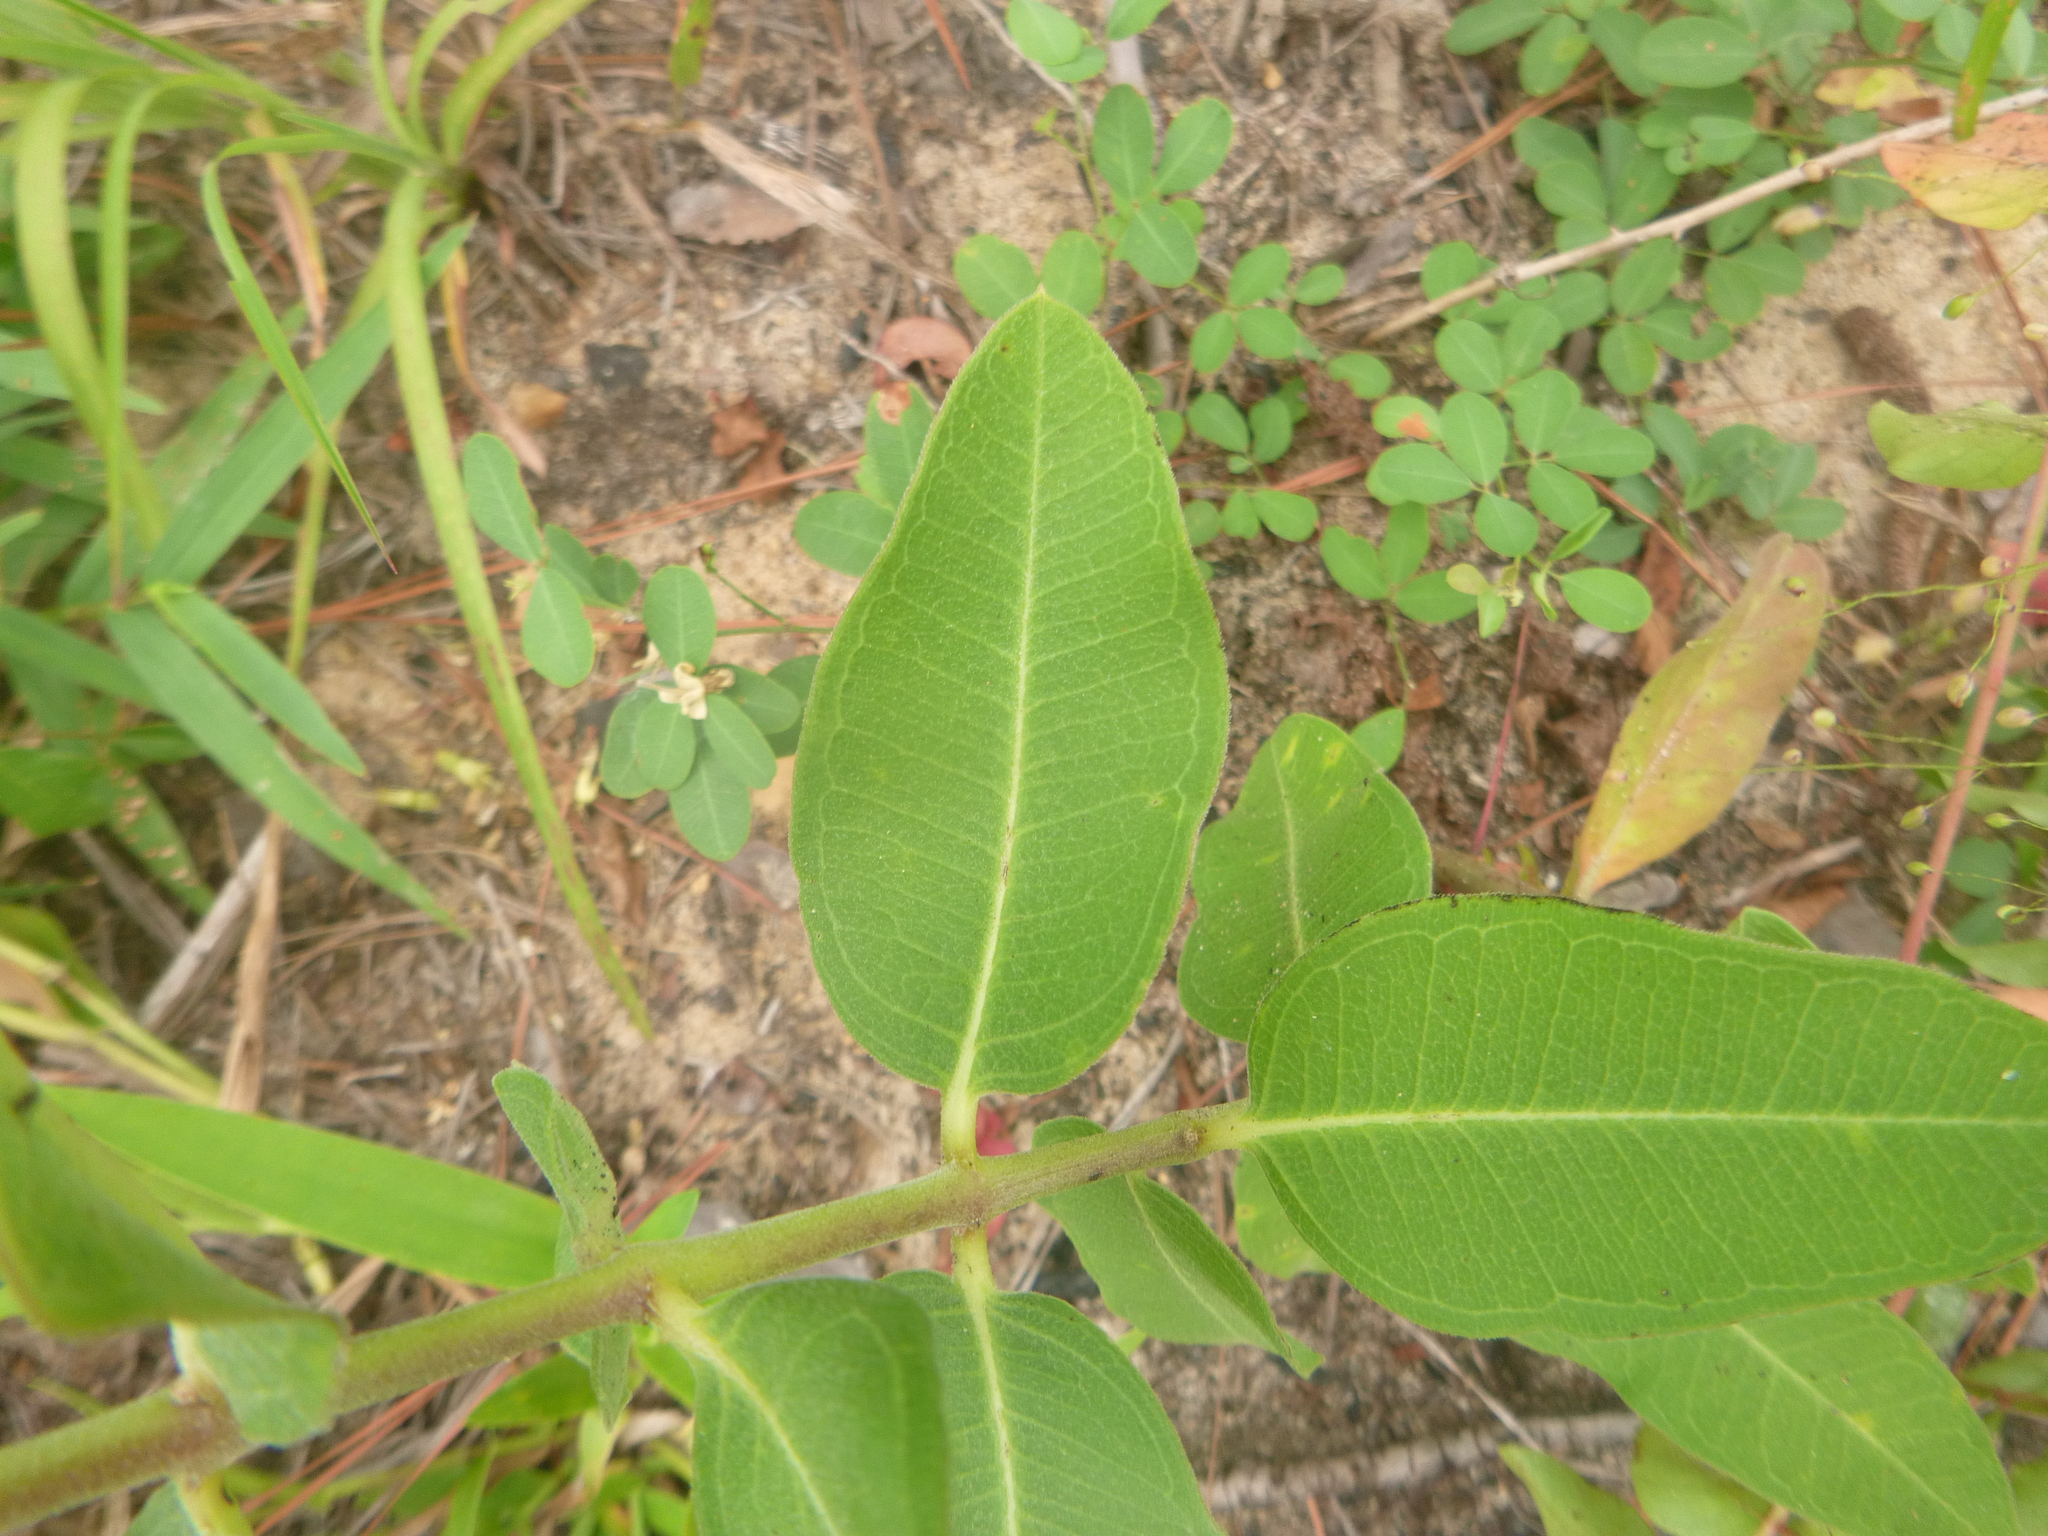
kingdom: Plantae
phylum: Tracheophyta
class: Magnoliopsida
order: Gentianales
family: Apocynaceae
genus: Asclepias
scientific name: Asclepias viridiflora
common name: Green comet milkweed
